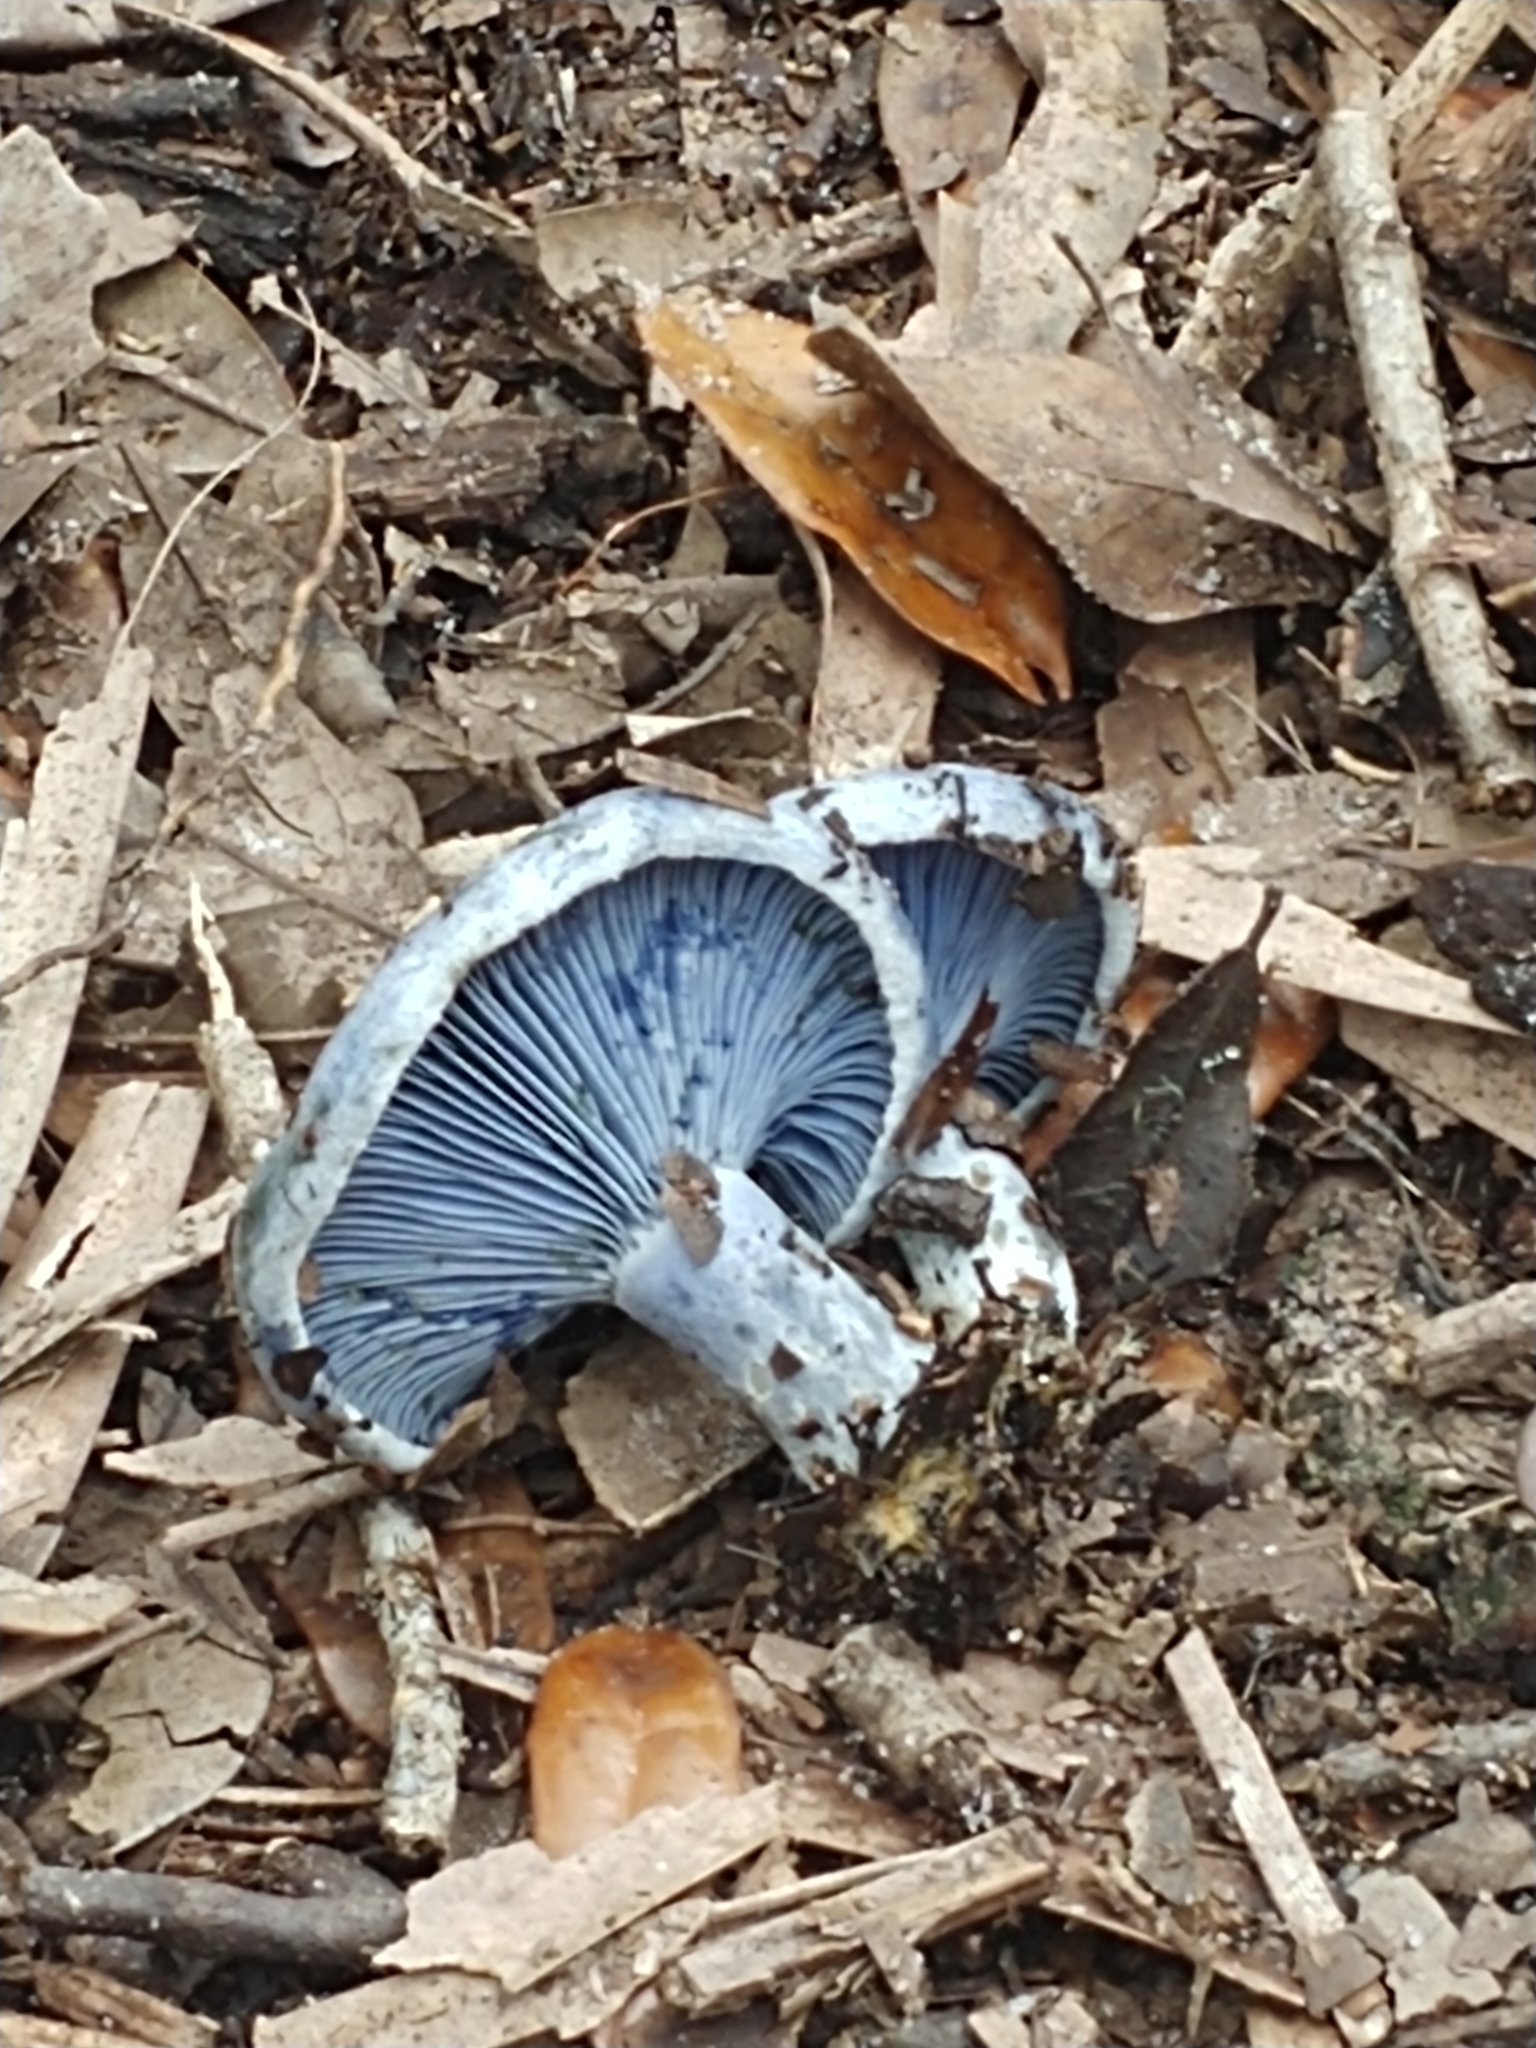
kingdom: Fungi
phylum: Basidiomycota
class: Agaricomycetes
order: Russulales
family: Russulaceae
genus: Lactarius
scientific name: Lactarius indigo
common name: Indigo milk cap
